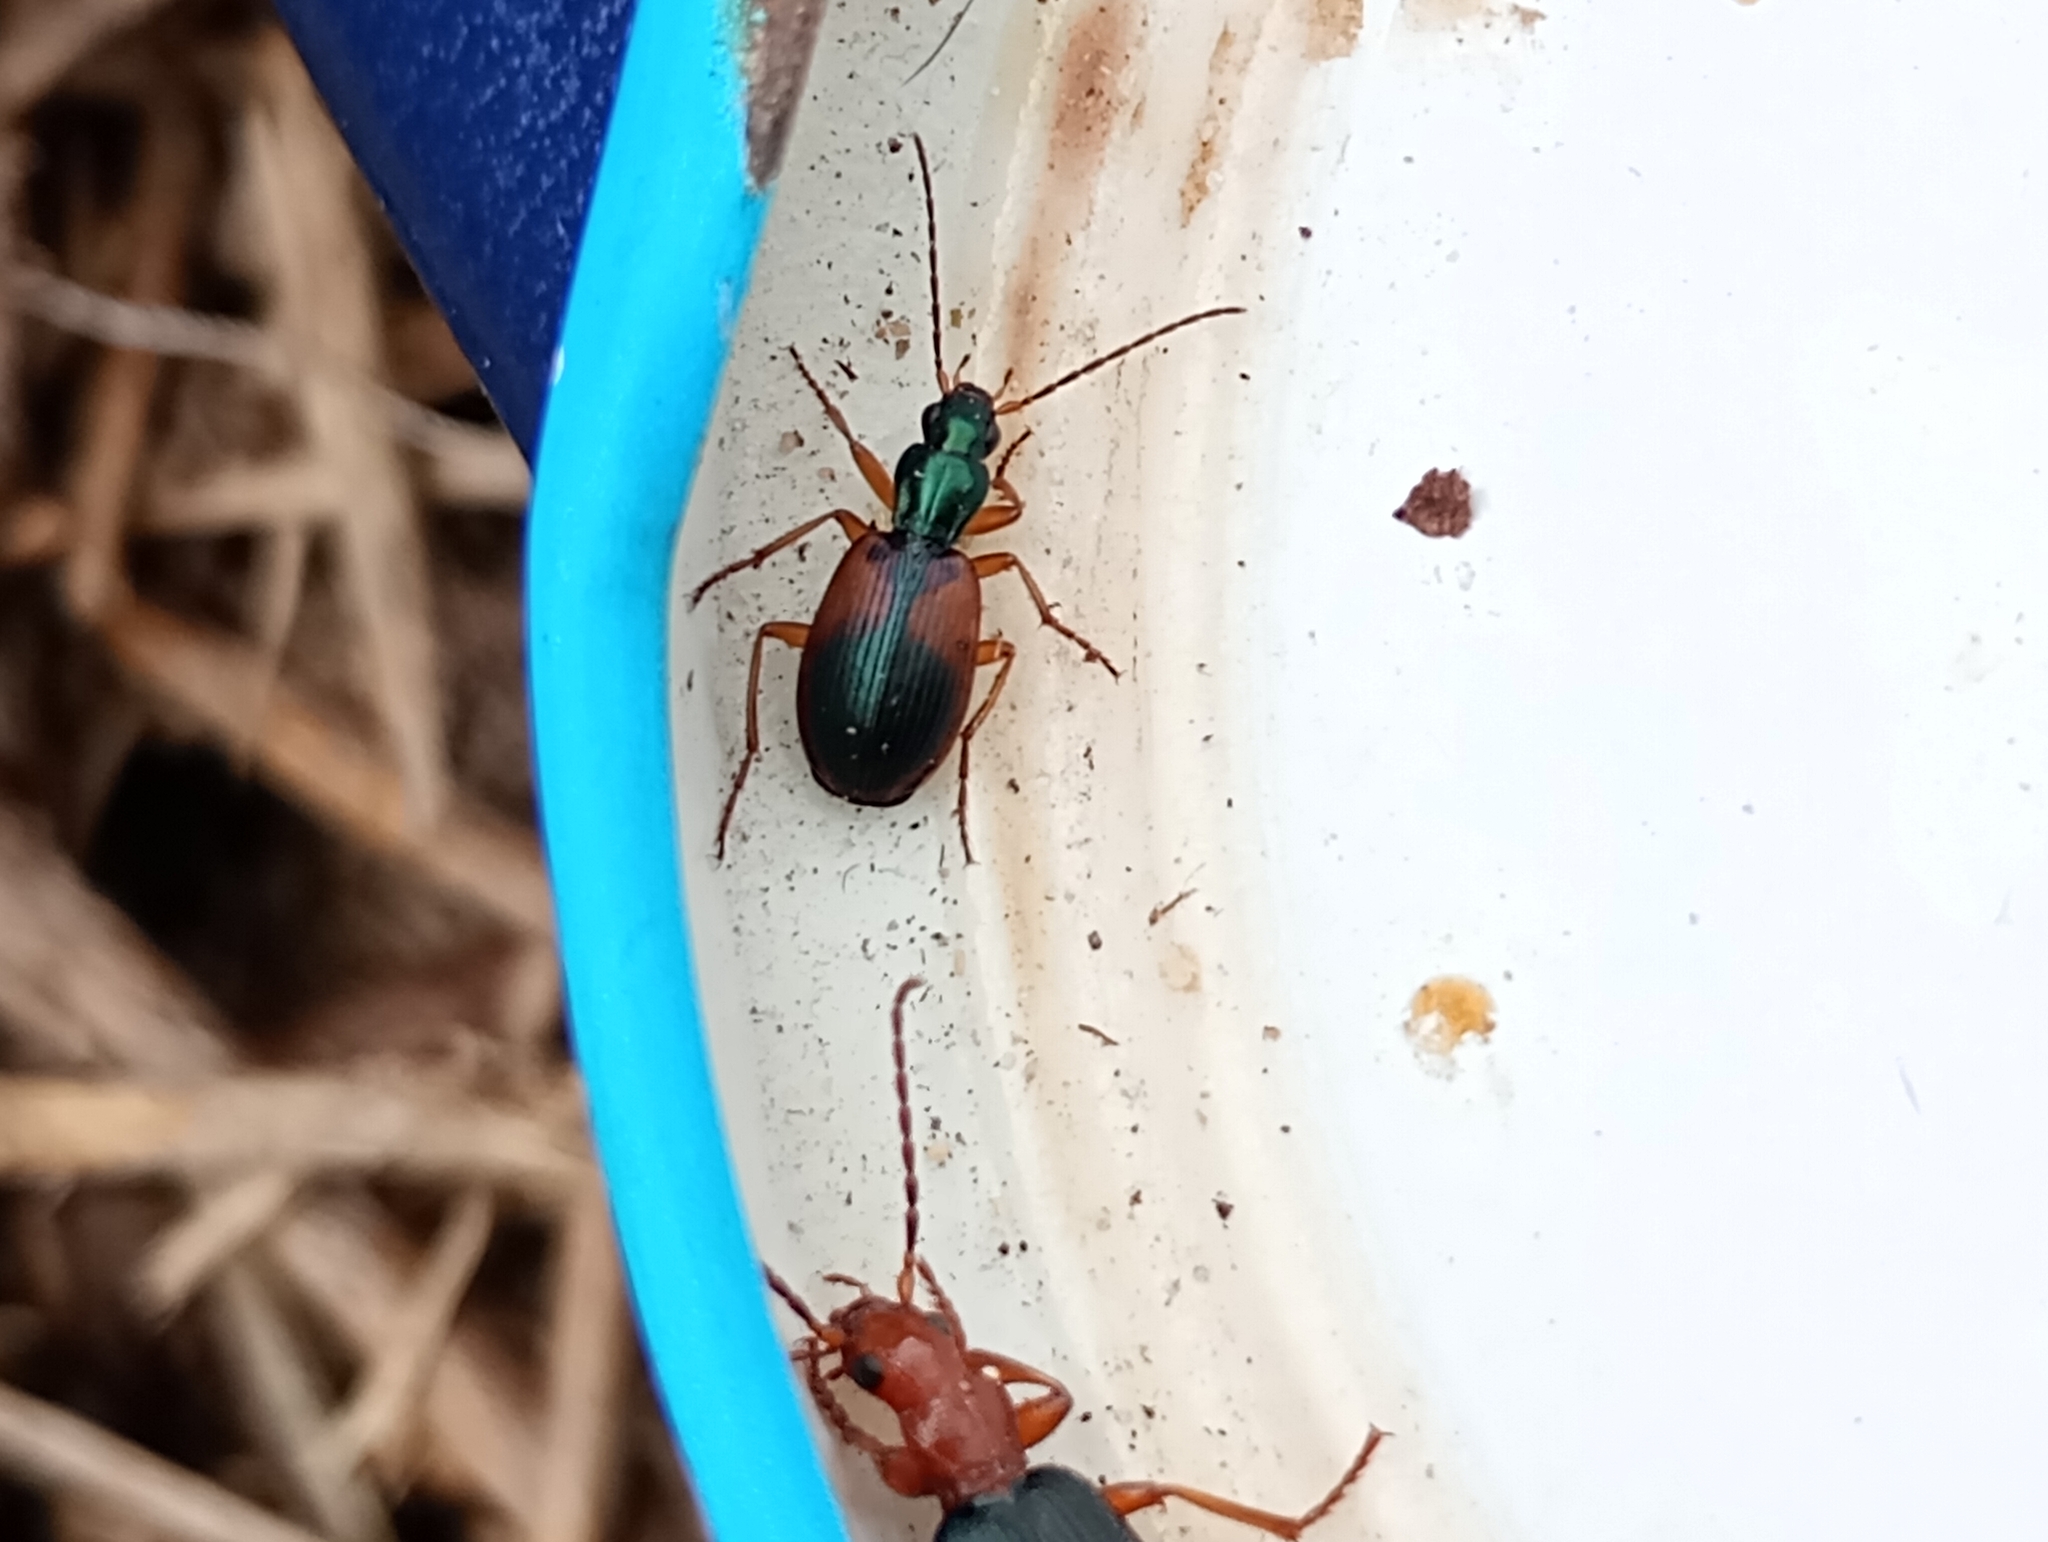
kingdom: Animalia
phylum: Arthropoda
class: Insecta
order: Coleoptera
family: Carabidae
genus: Anchomenus
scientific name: Anchomenus dorsalis
